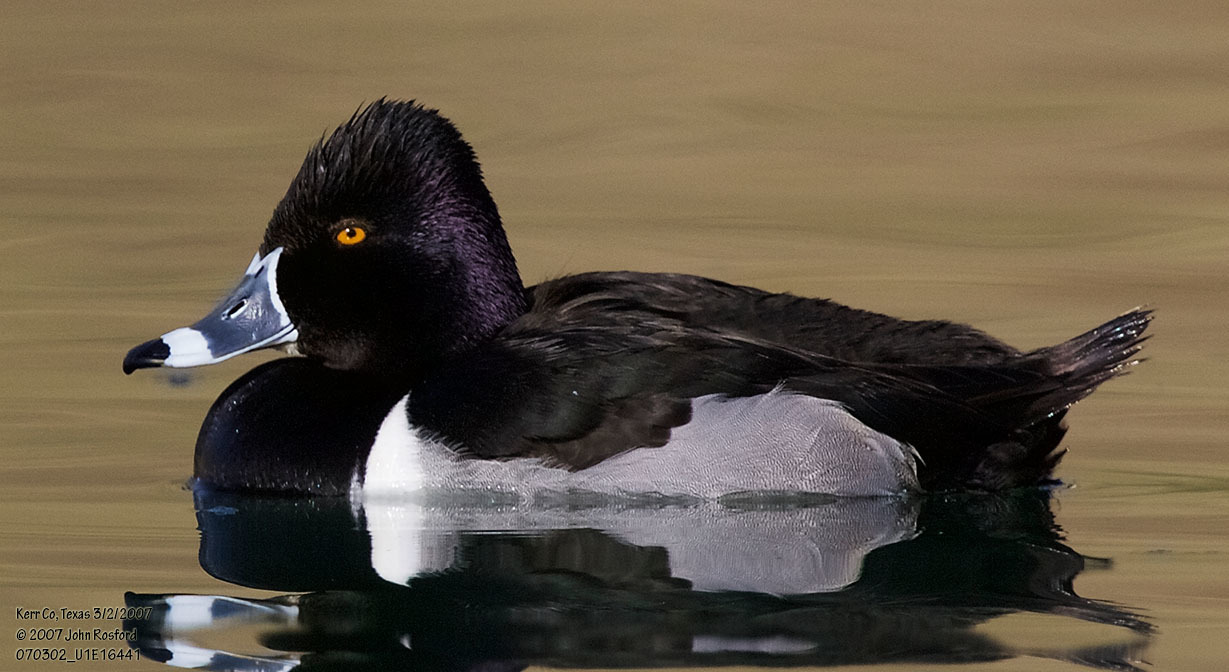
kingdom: Animalia
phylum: Chordata
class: Aves
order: Anseriformes
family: Anatidae
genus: Aythya
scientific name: Aythya collaris
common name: Ring-necked duck
